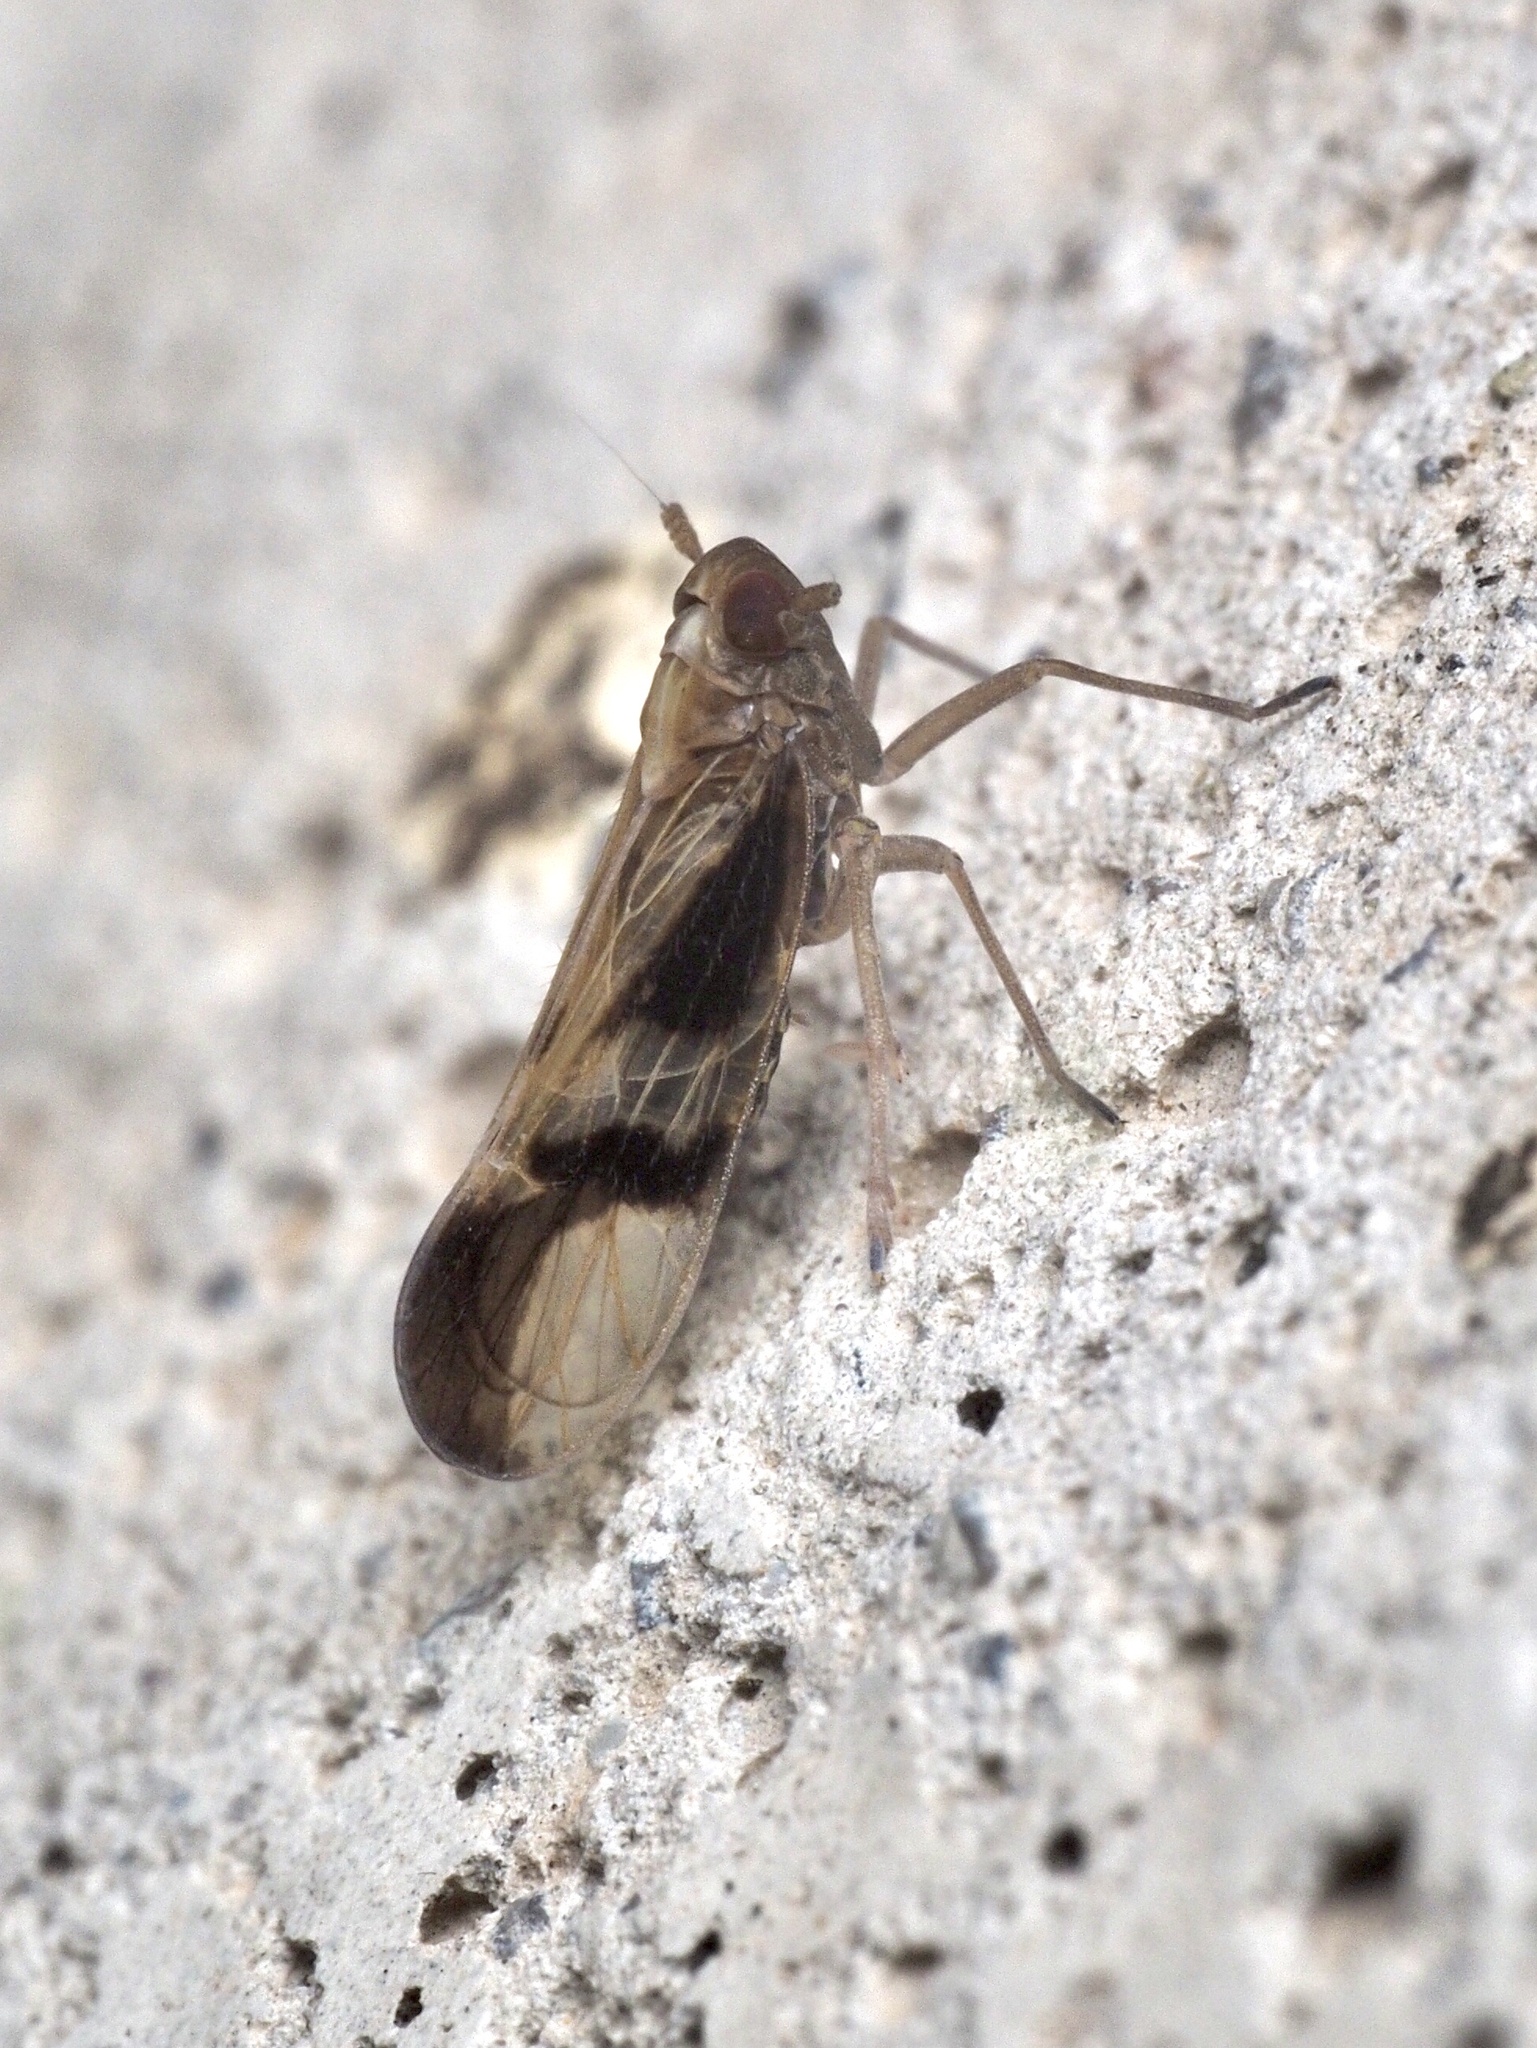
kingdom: Animalia
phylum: Arthropoda
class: Insecta
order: Hemiptera
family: Delphacidae
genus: Euides
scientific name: Euides basilinea
